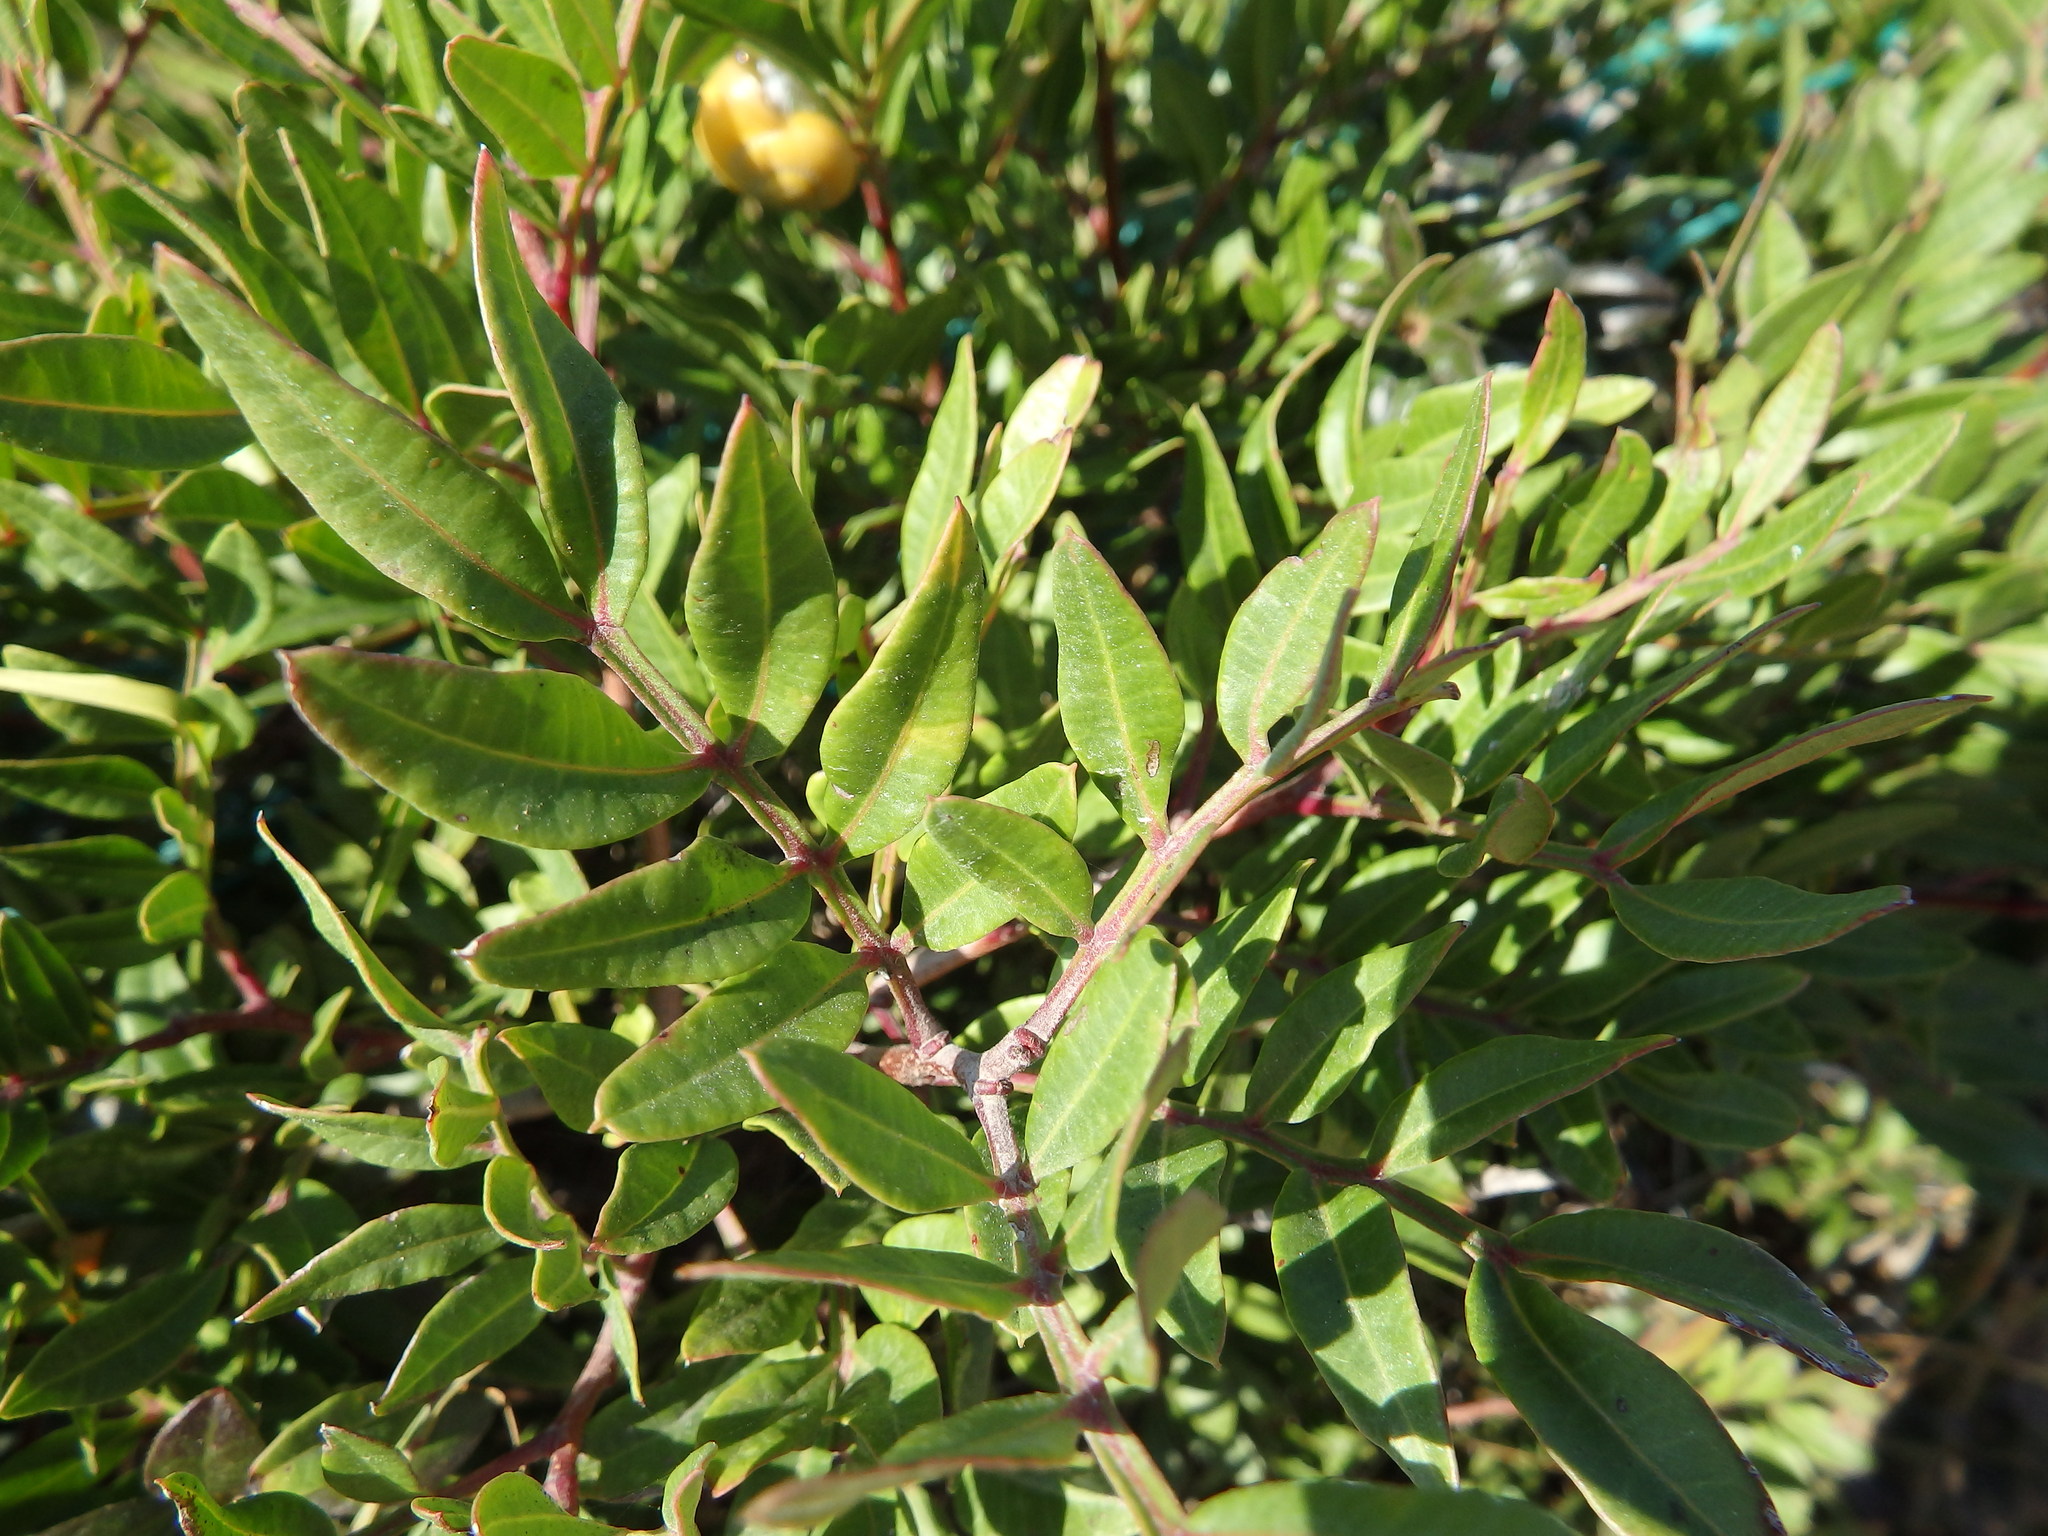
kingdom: Plantae
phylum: Tracheophyta
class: Magnoliopsida
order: Sapindales
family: Anacardiaceae
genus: Pistacia
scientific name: Pistacia lentiscus
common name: Lentisk
